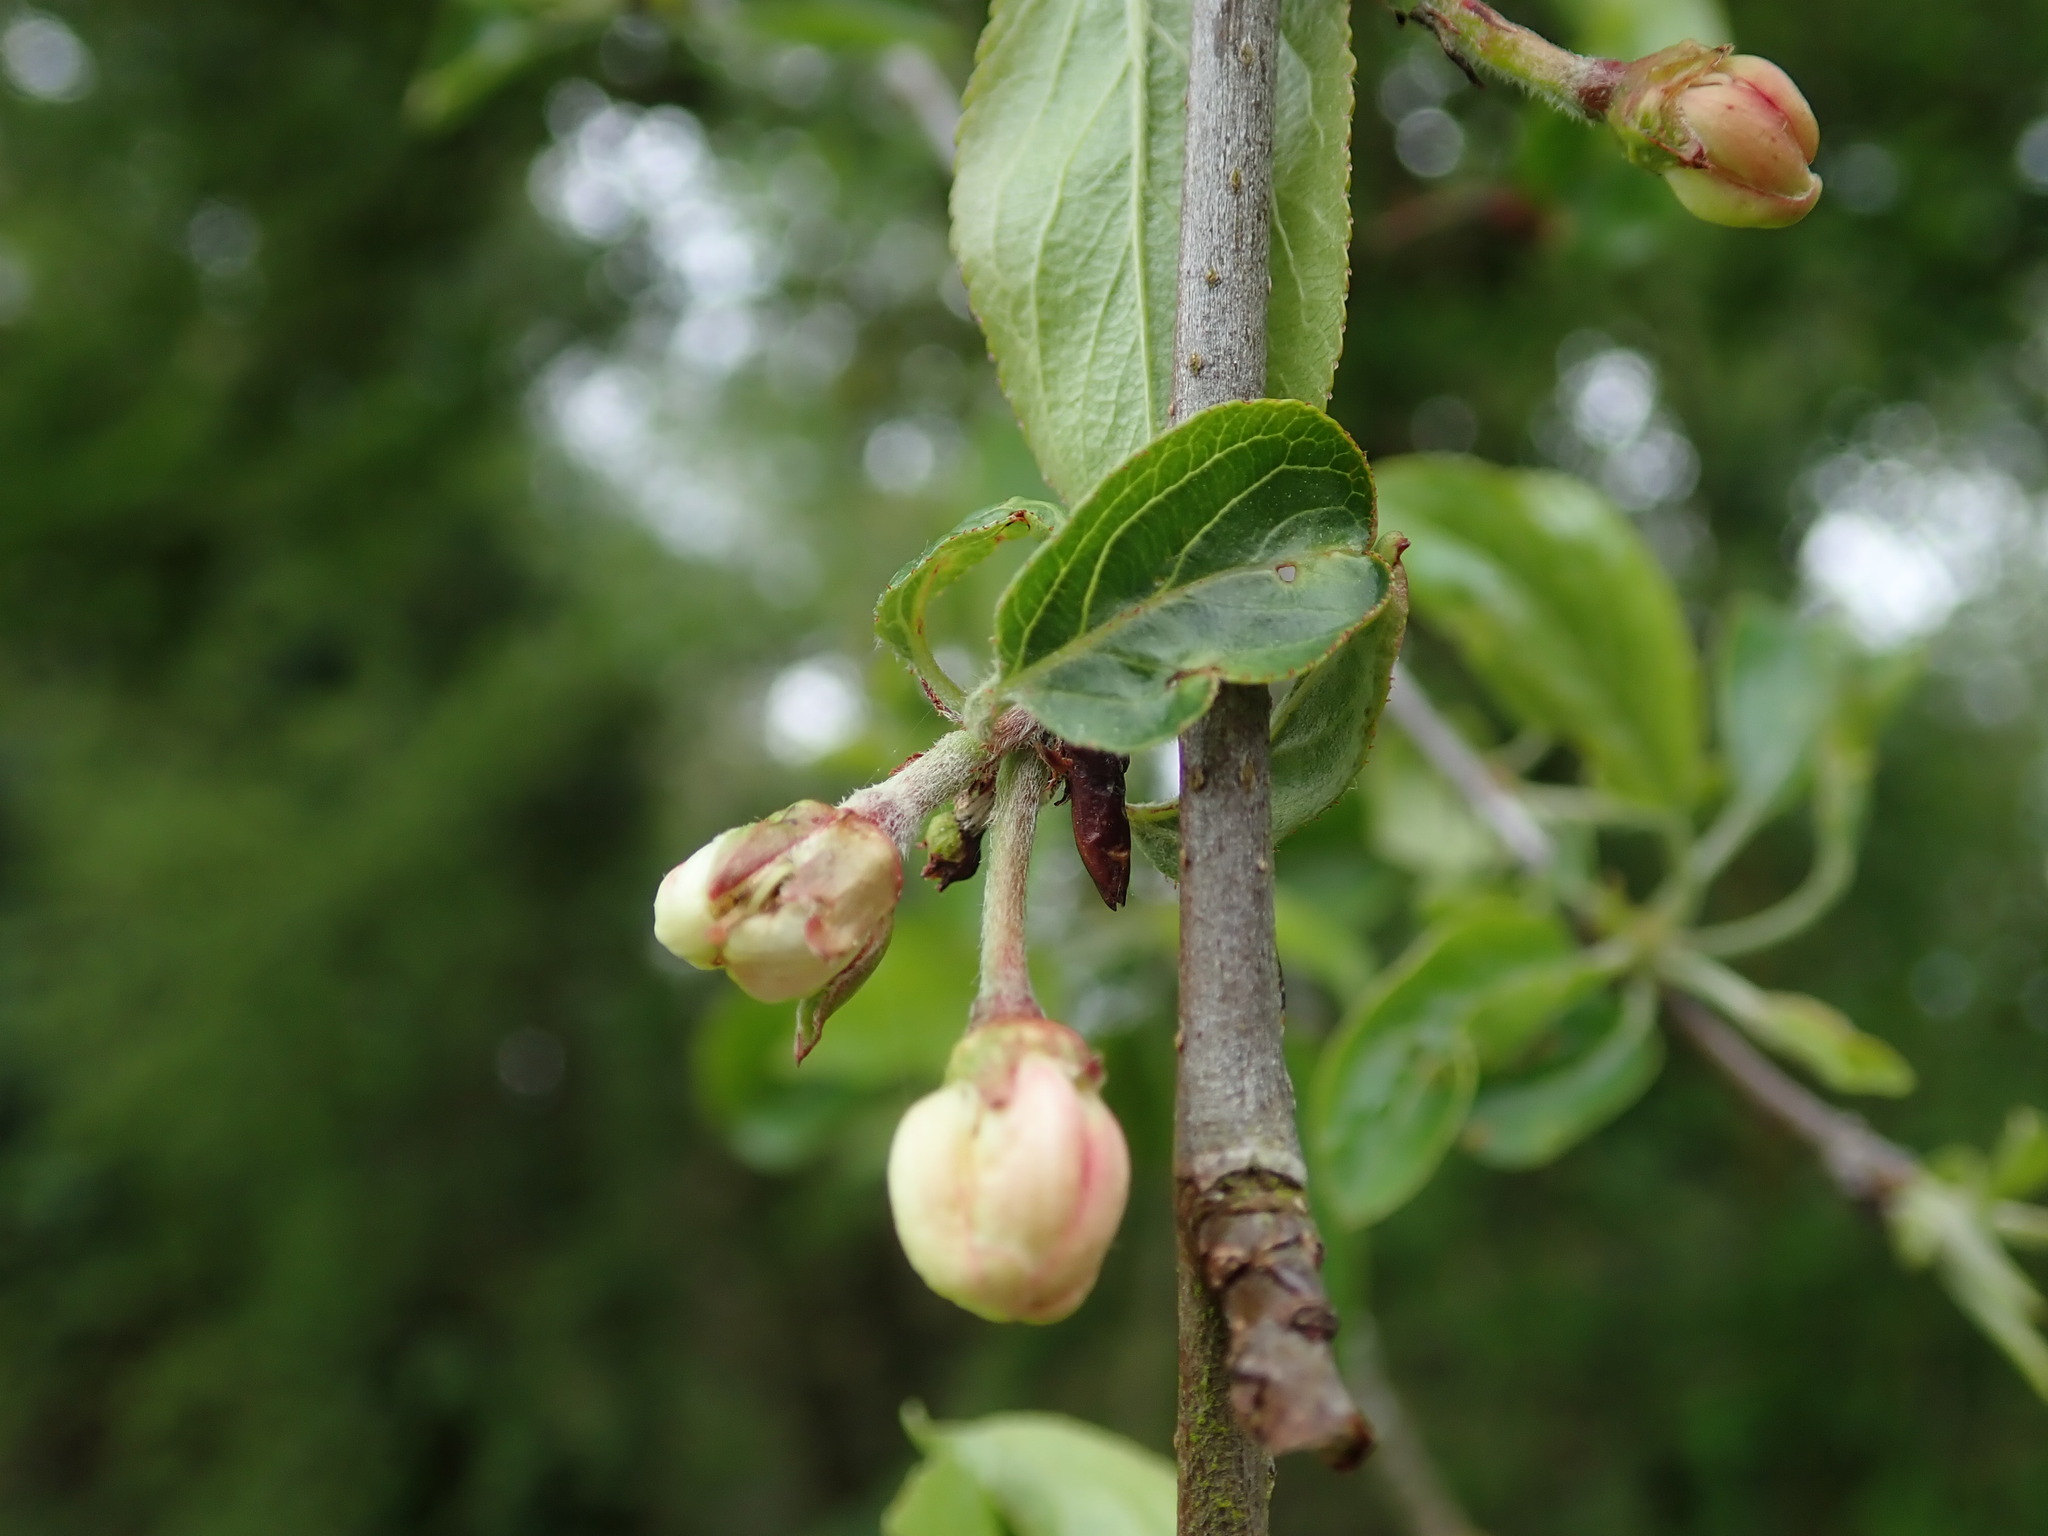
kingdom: Plantae
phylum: Tracheophyta
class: Magnoliopsida
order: Rosales
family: Rosaceae
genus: Malus
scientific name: Malus domestica
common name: Apple
